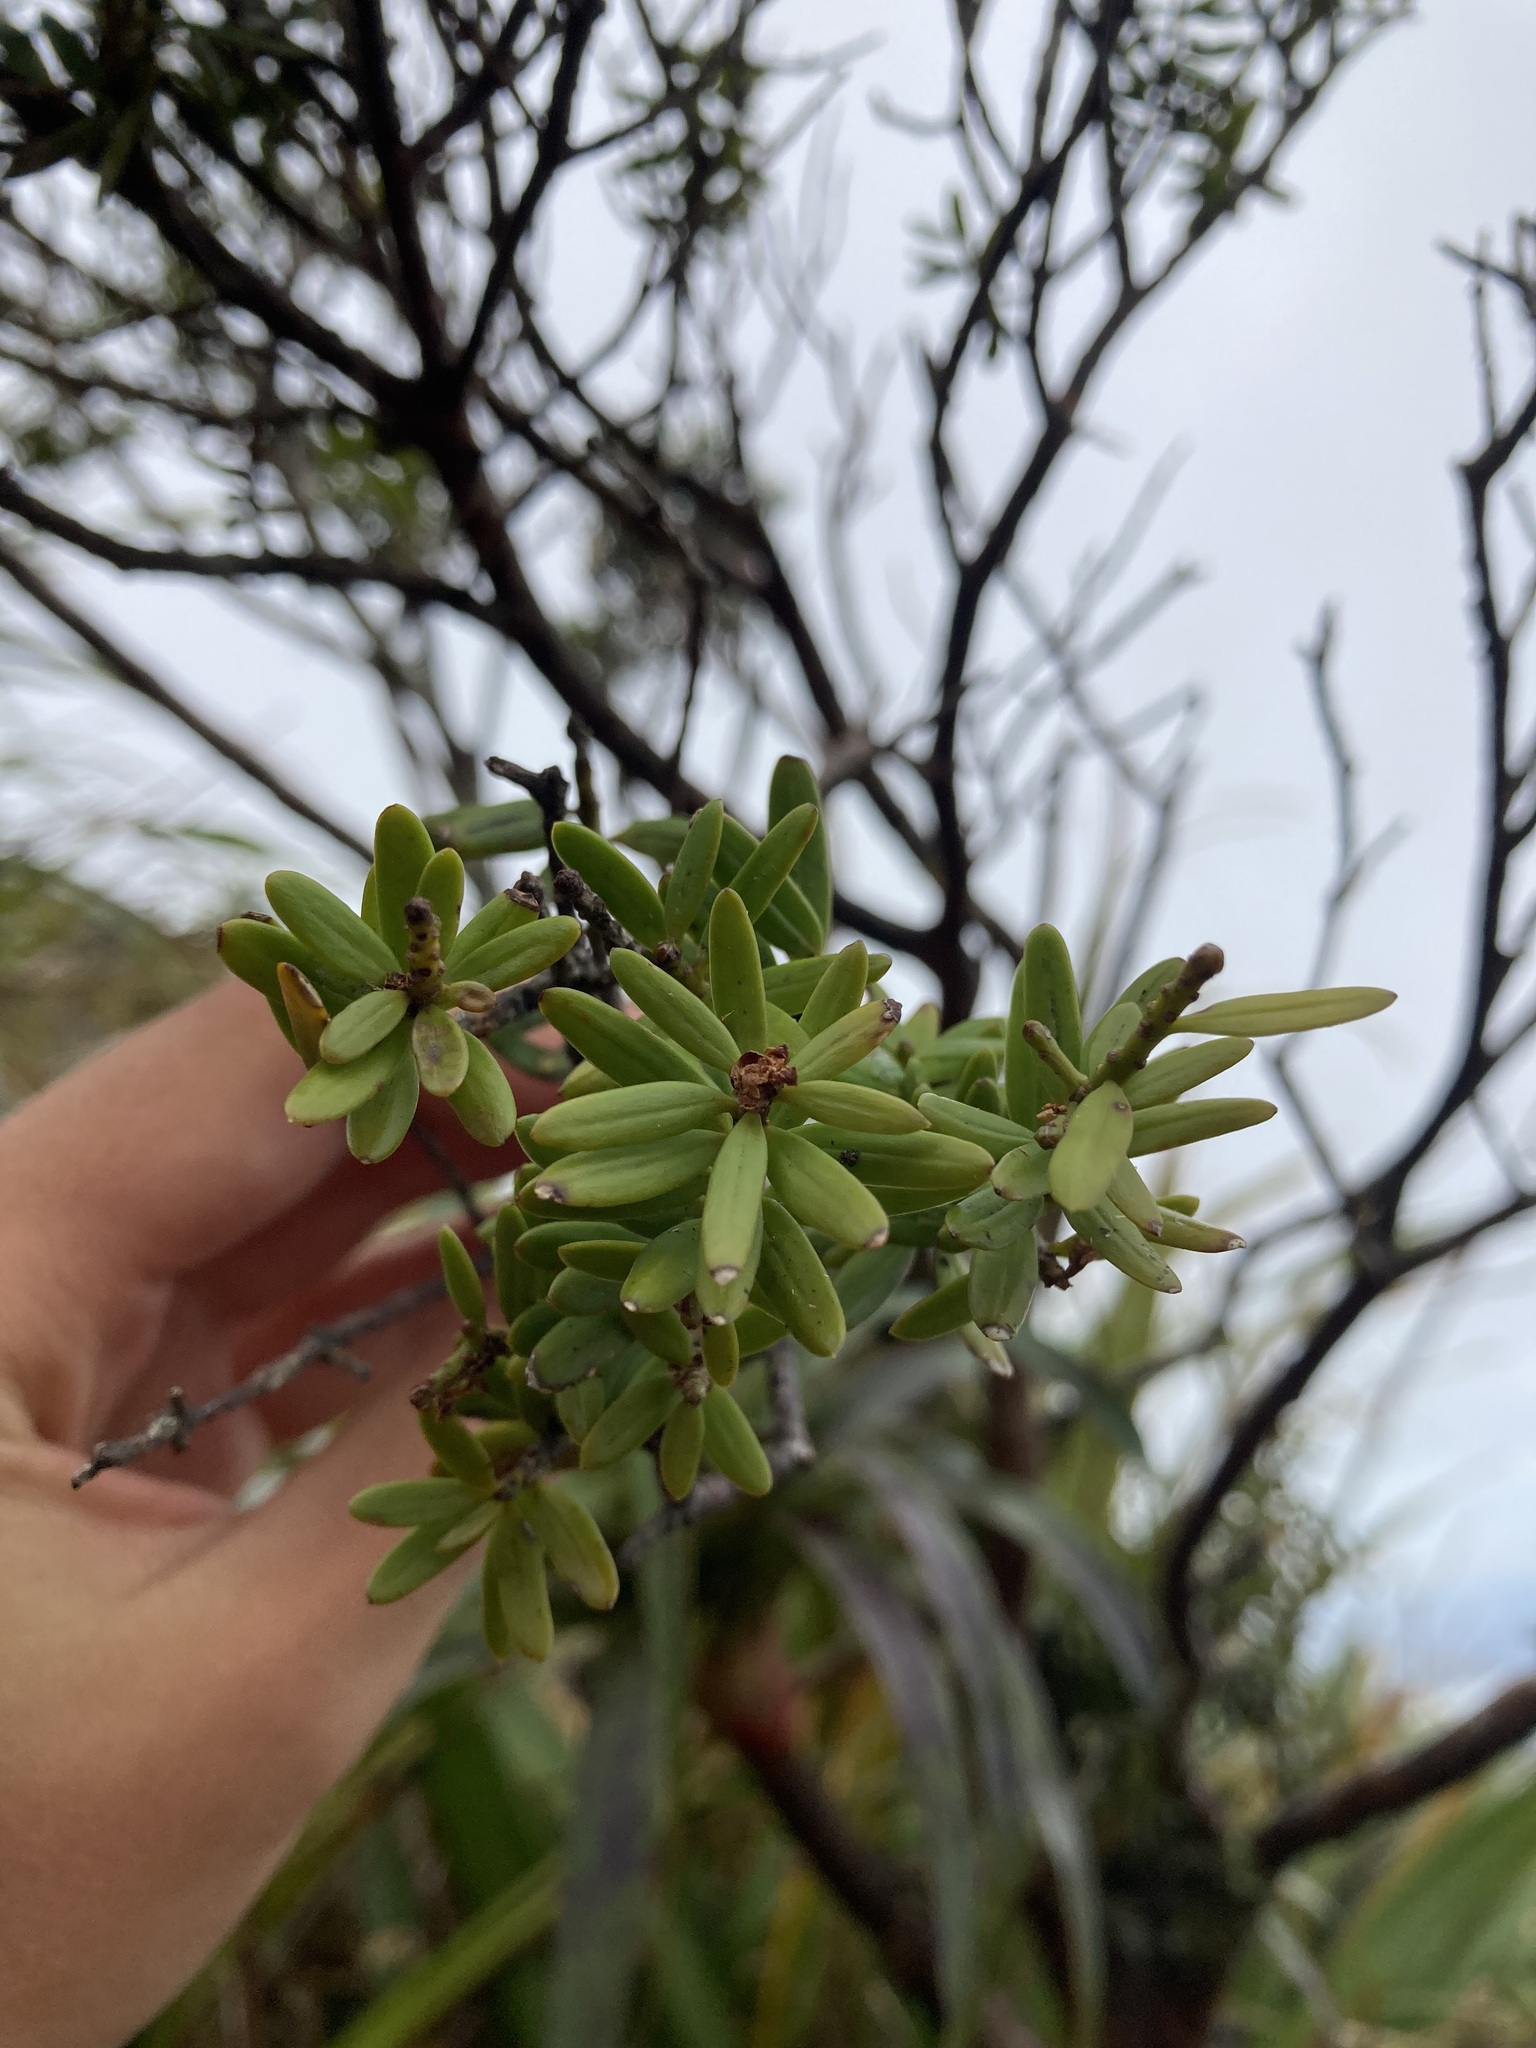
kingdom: Plantae
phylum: Tracheophyta
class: Pinopsida
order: Pinales
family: Podocarpaceae
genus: Podocarpus
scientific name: Podocarpus laetus
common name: Hall's totara
